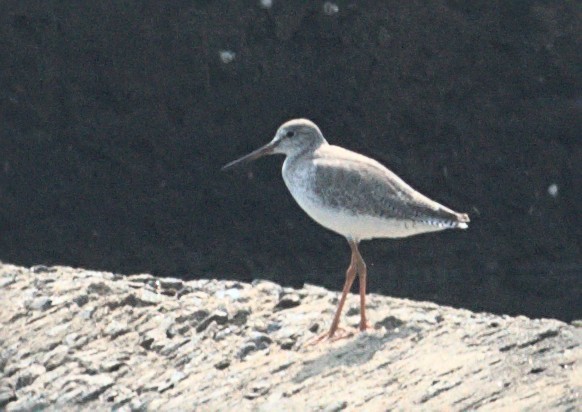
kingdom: Animalia
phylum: Chordata
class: Aves
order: Charadriiformes
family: Scolopacidae
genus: Tringa
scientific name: Tringa totanus
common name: Common redshank
